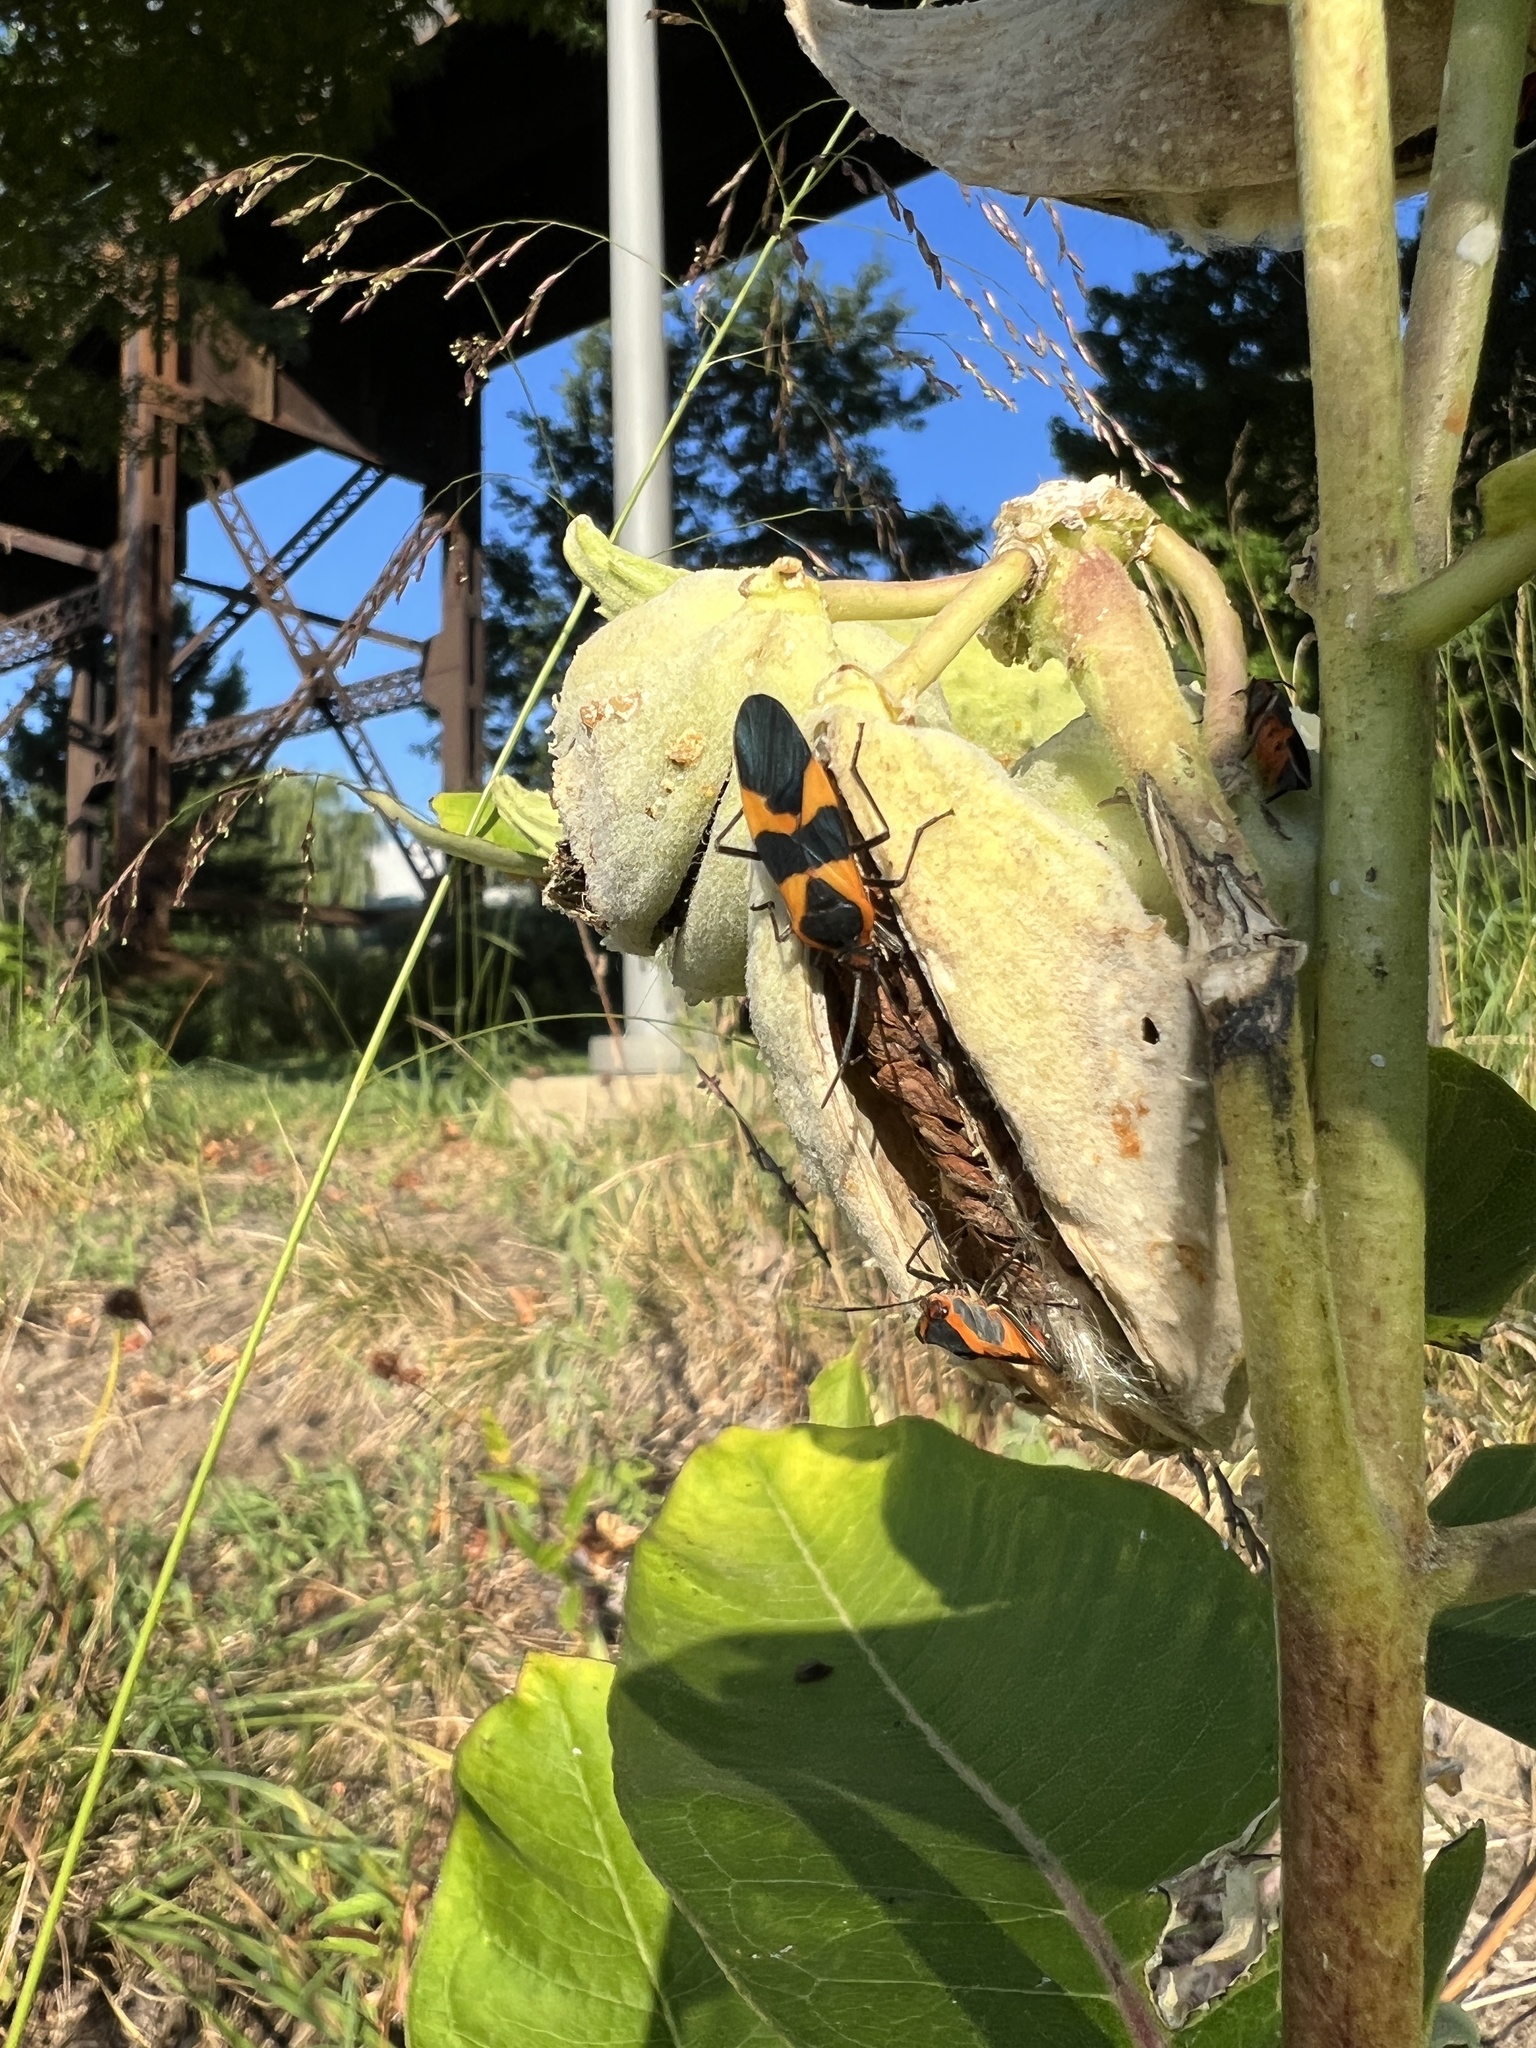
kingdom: Animalia
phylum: Arthropoda
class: Insecta
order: Hemiptera
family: Lygaeidae
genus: Oncopeltus
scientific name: Oncopeltus fasciatus
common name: Large milkweed bug
